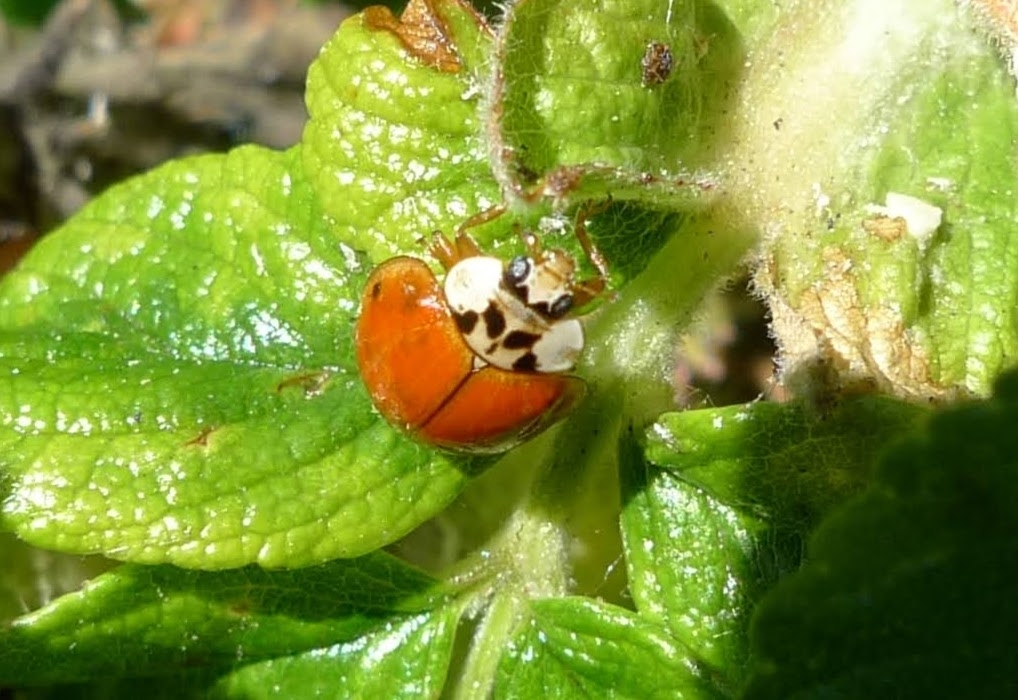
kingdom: Animalia
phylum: Arthropoda
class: Insecta
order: Coleoptera
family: Coccinellidae
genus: Harmonia
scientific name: Harmonia axyridis
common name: Harlequin ladybird
